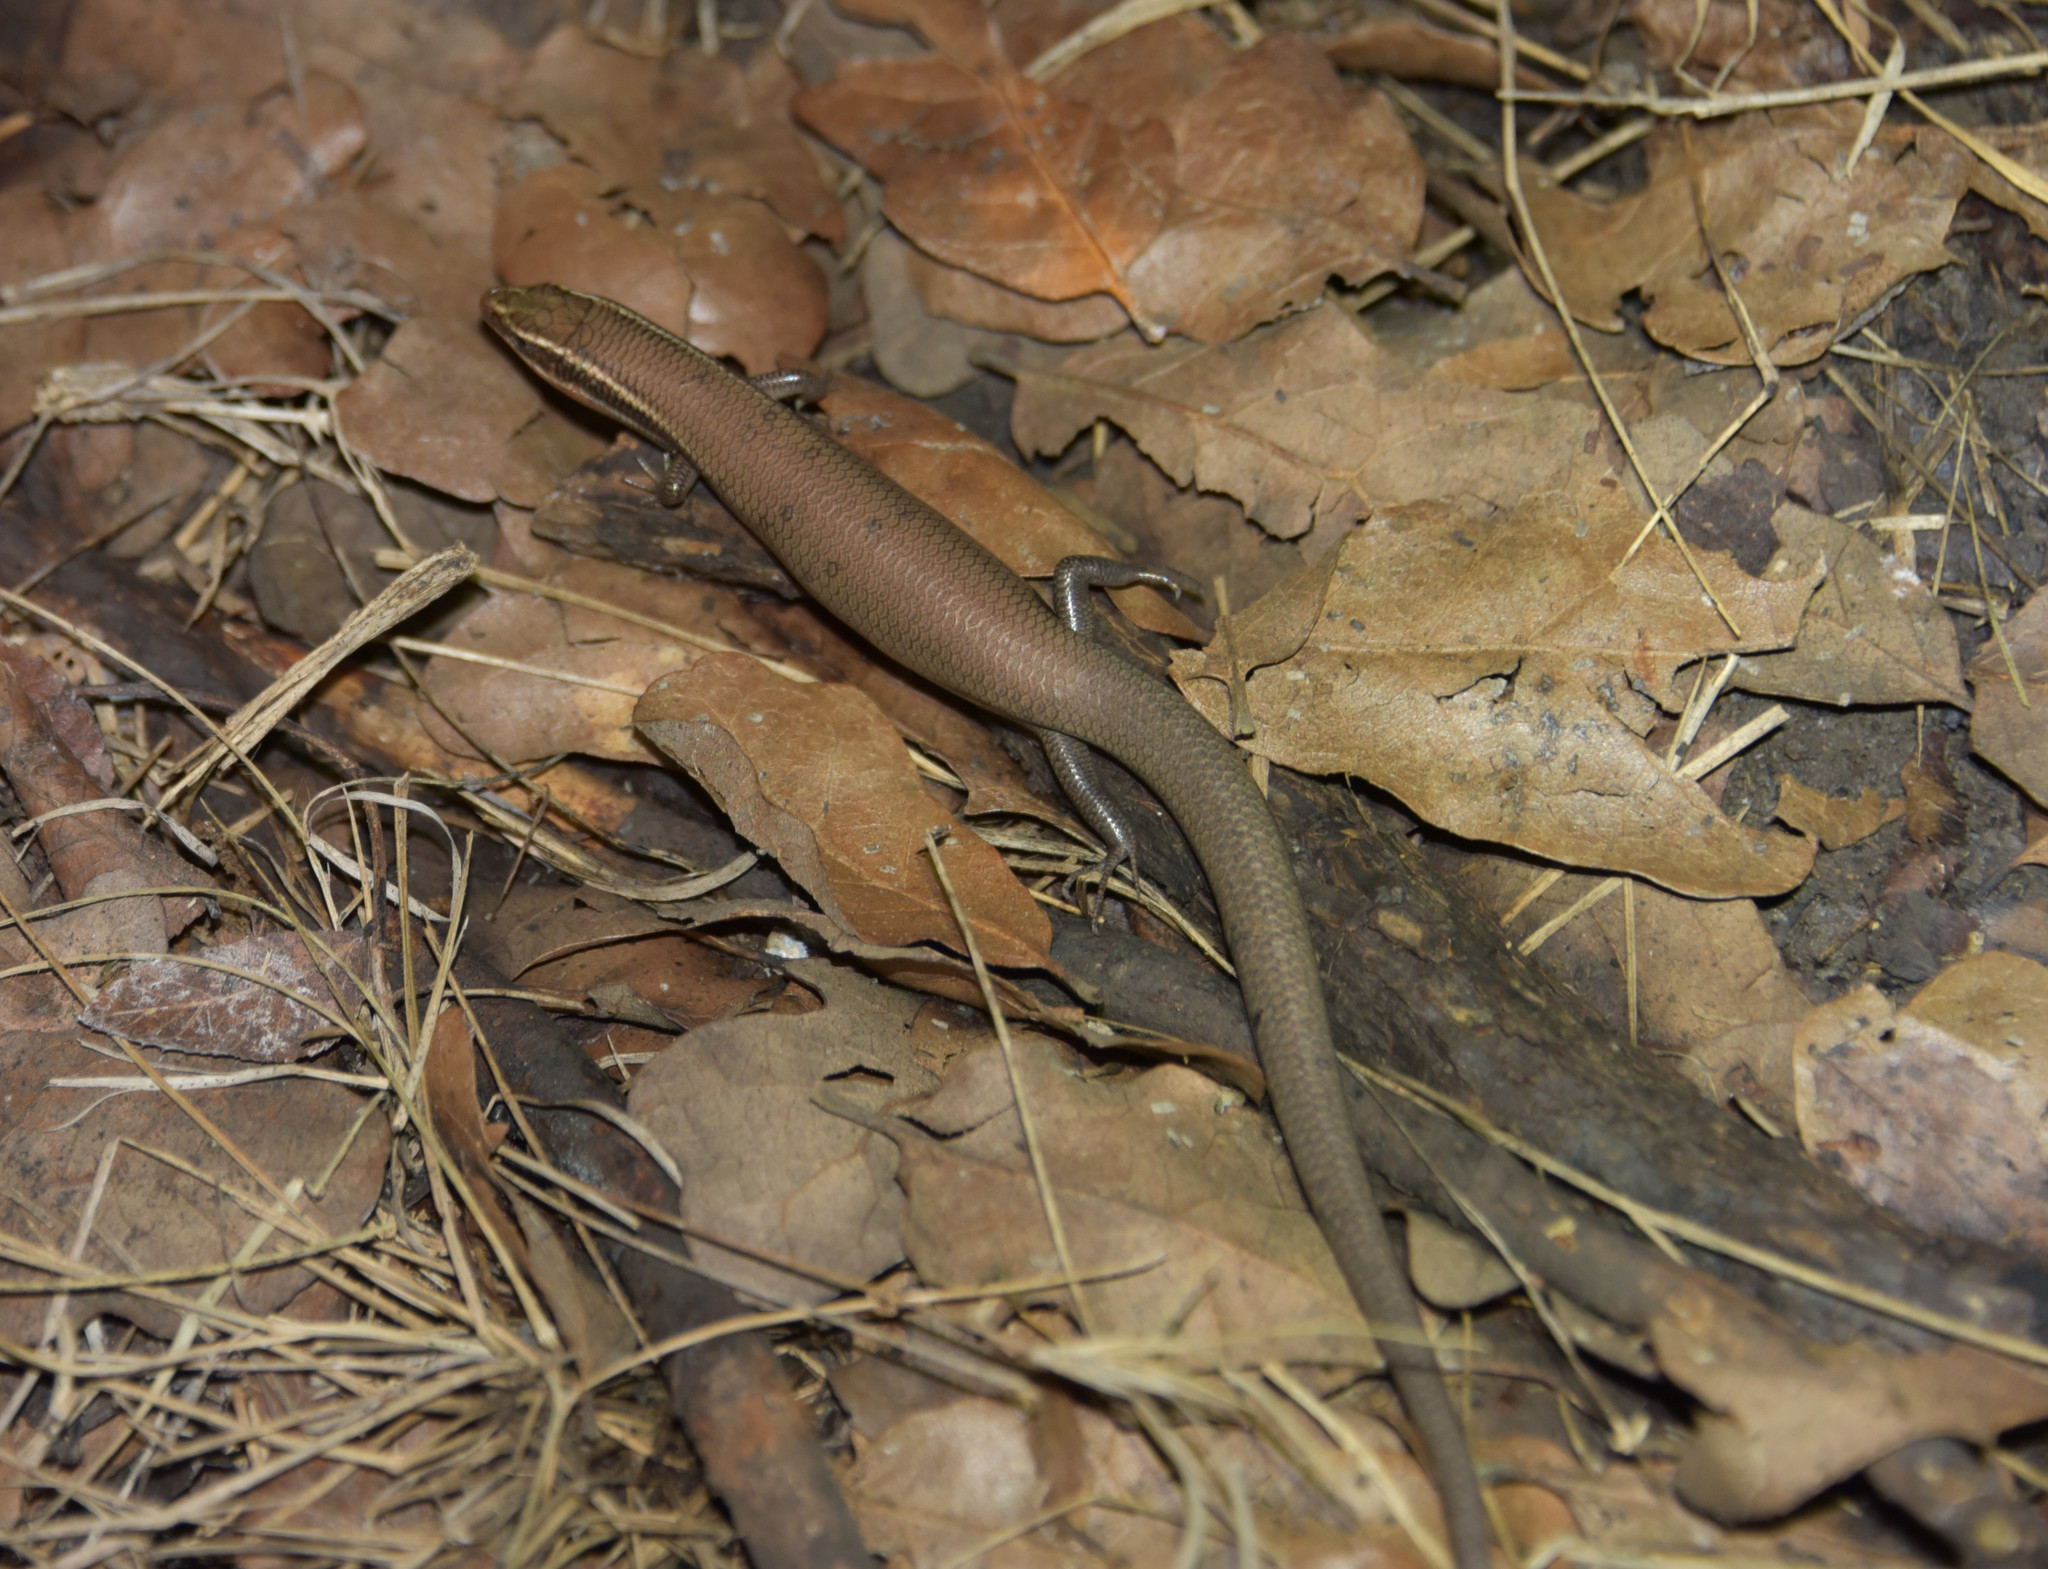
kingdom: Animalia
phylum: Chordata
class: Squamata
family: Scincidae
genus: Plestiodon
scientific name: Plestiodon tetragrammus
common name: Four-lined skink
